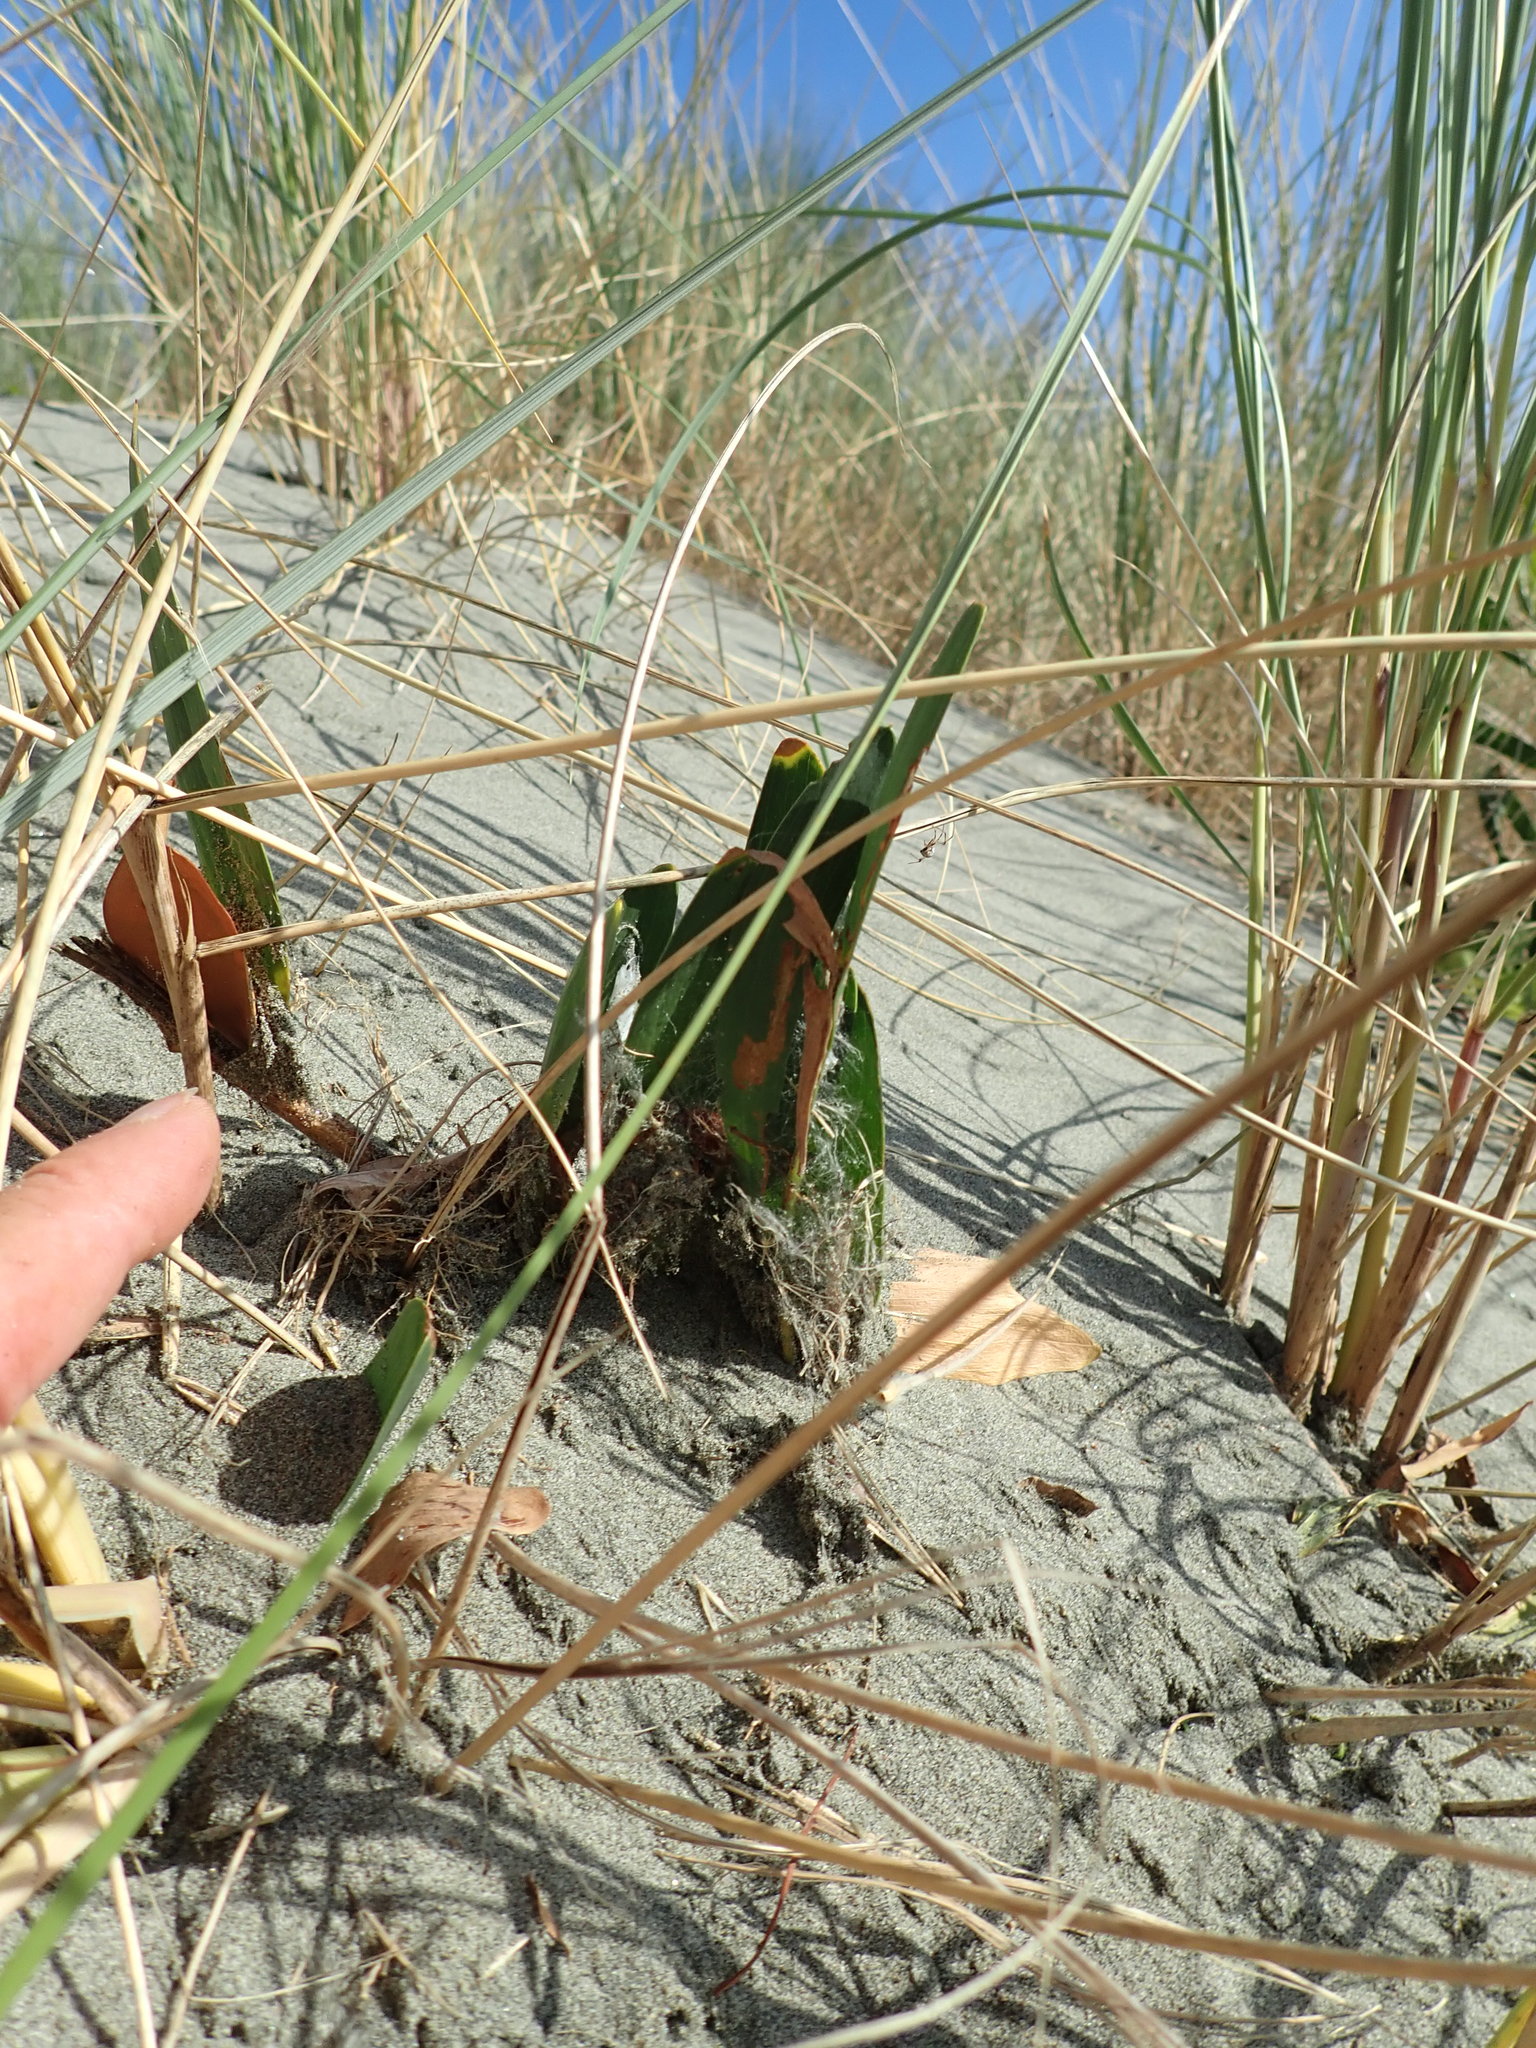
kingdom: Plantae
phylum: Tracheophyta
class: Magnoliopsida
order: Fabales
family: Fabaceae
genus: Acacia
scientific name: Acacia longifolia
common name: Sydney golden wattle
